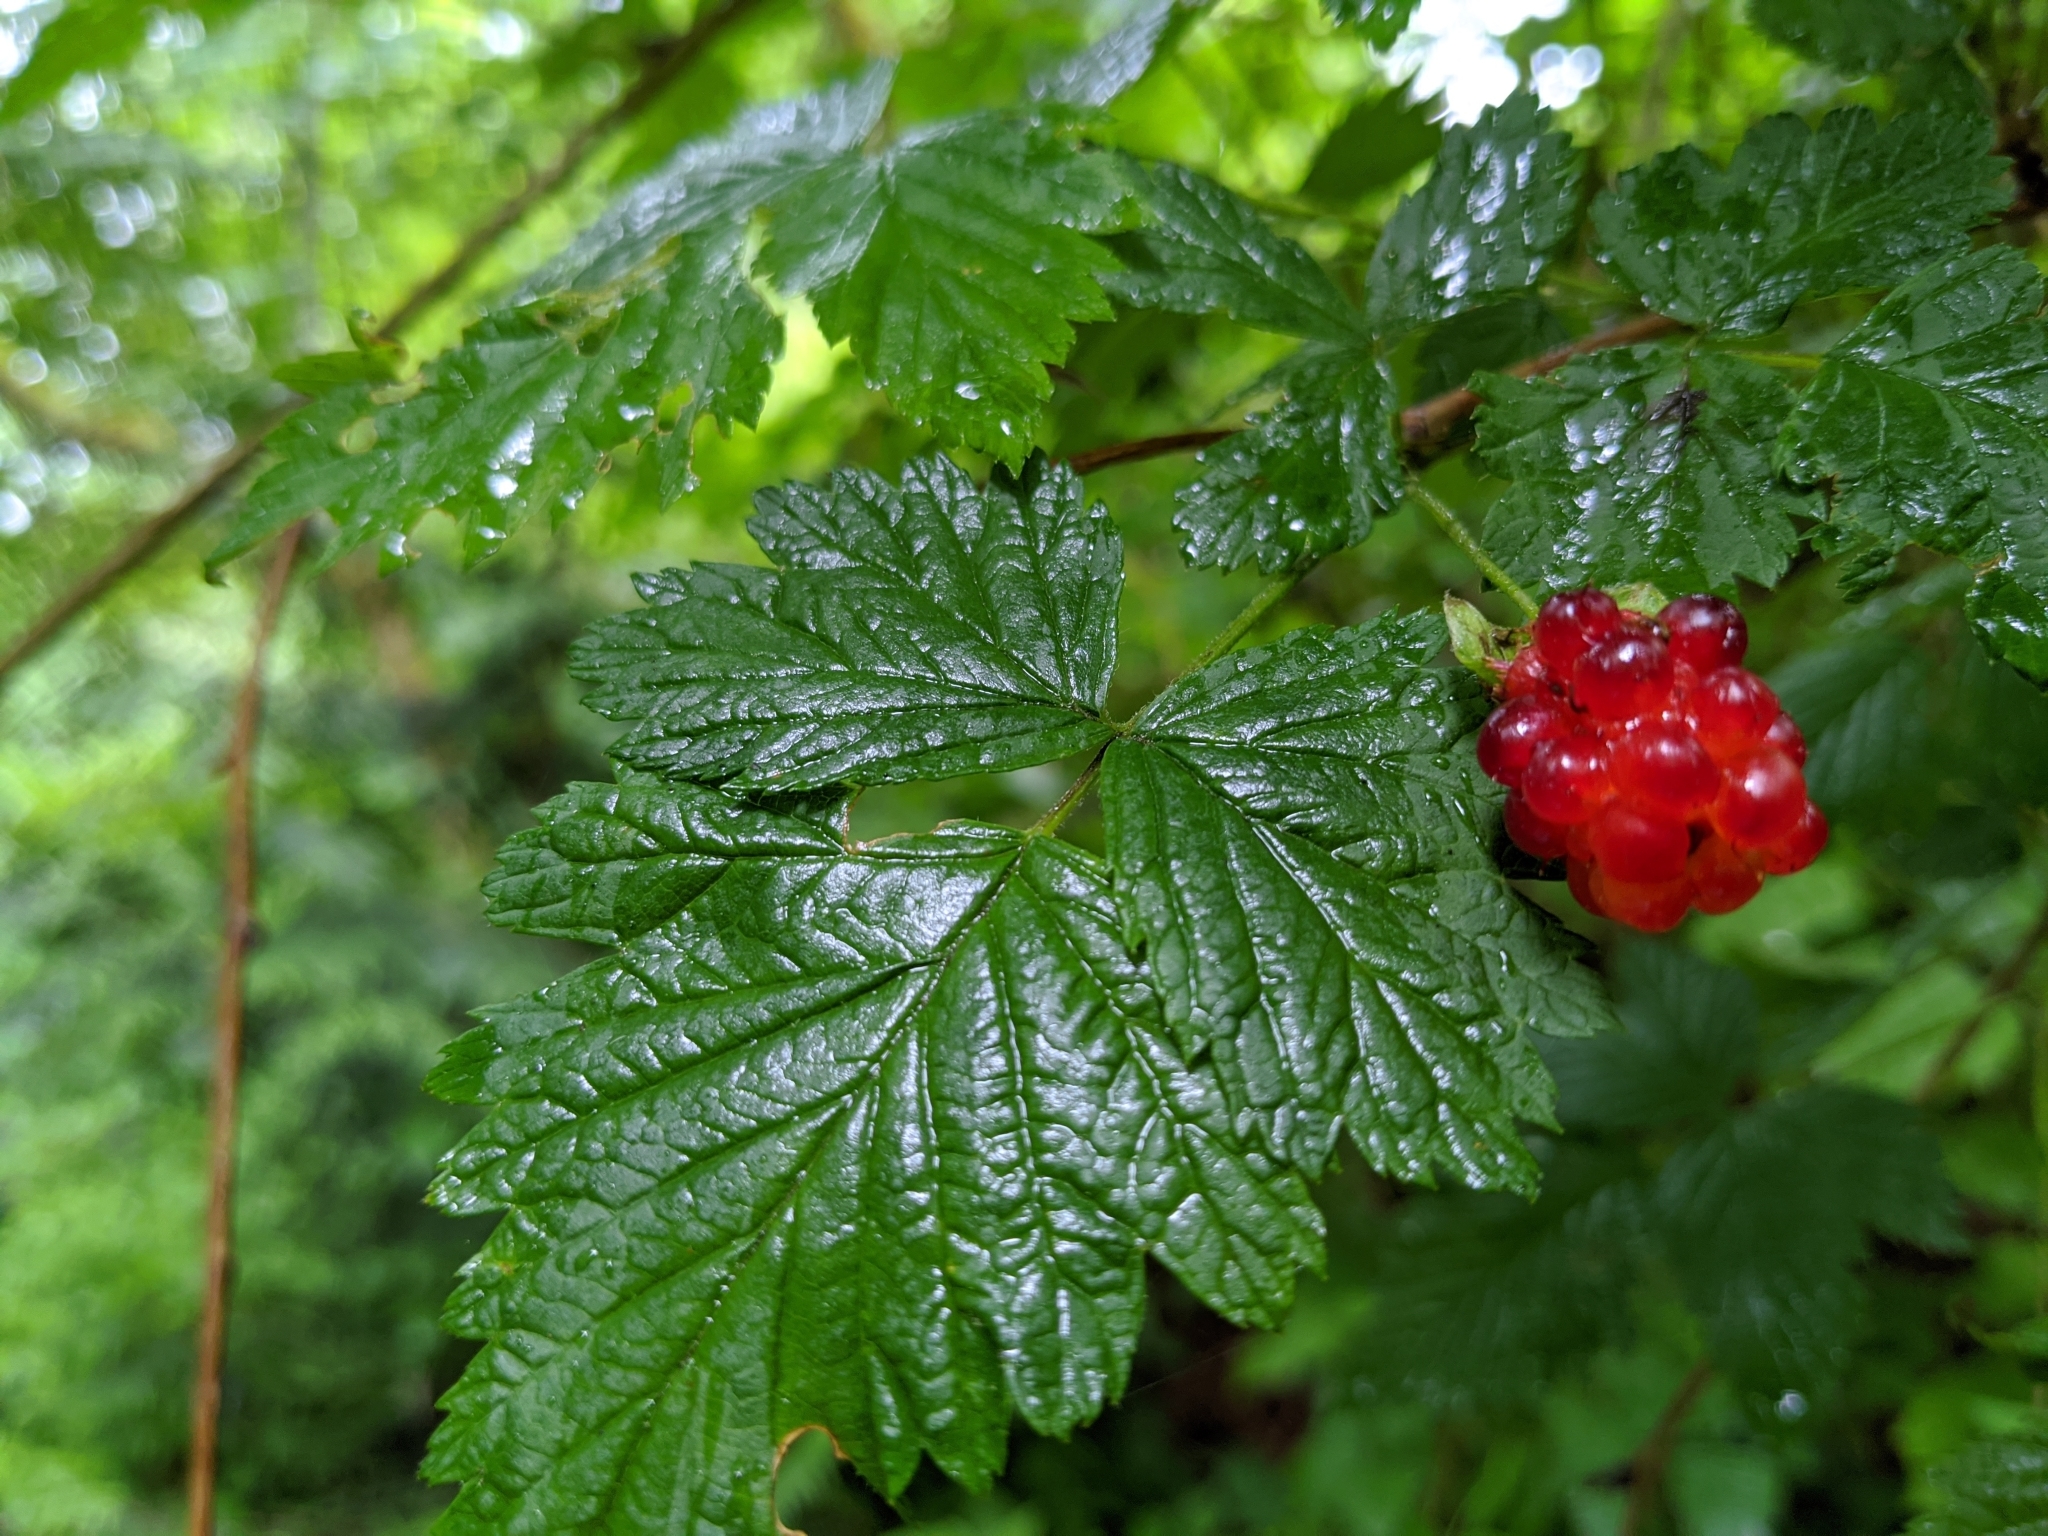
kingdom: Plantae
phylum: Tracheophyta
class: Magnoliopsida
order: Rosales
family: Rosaceae
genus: Rubus
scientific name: Rubus spectabilis
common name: Salmonberry
